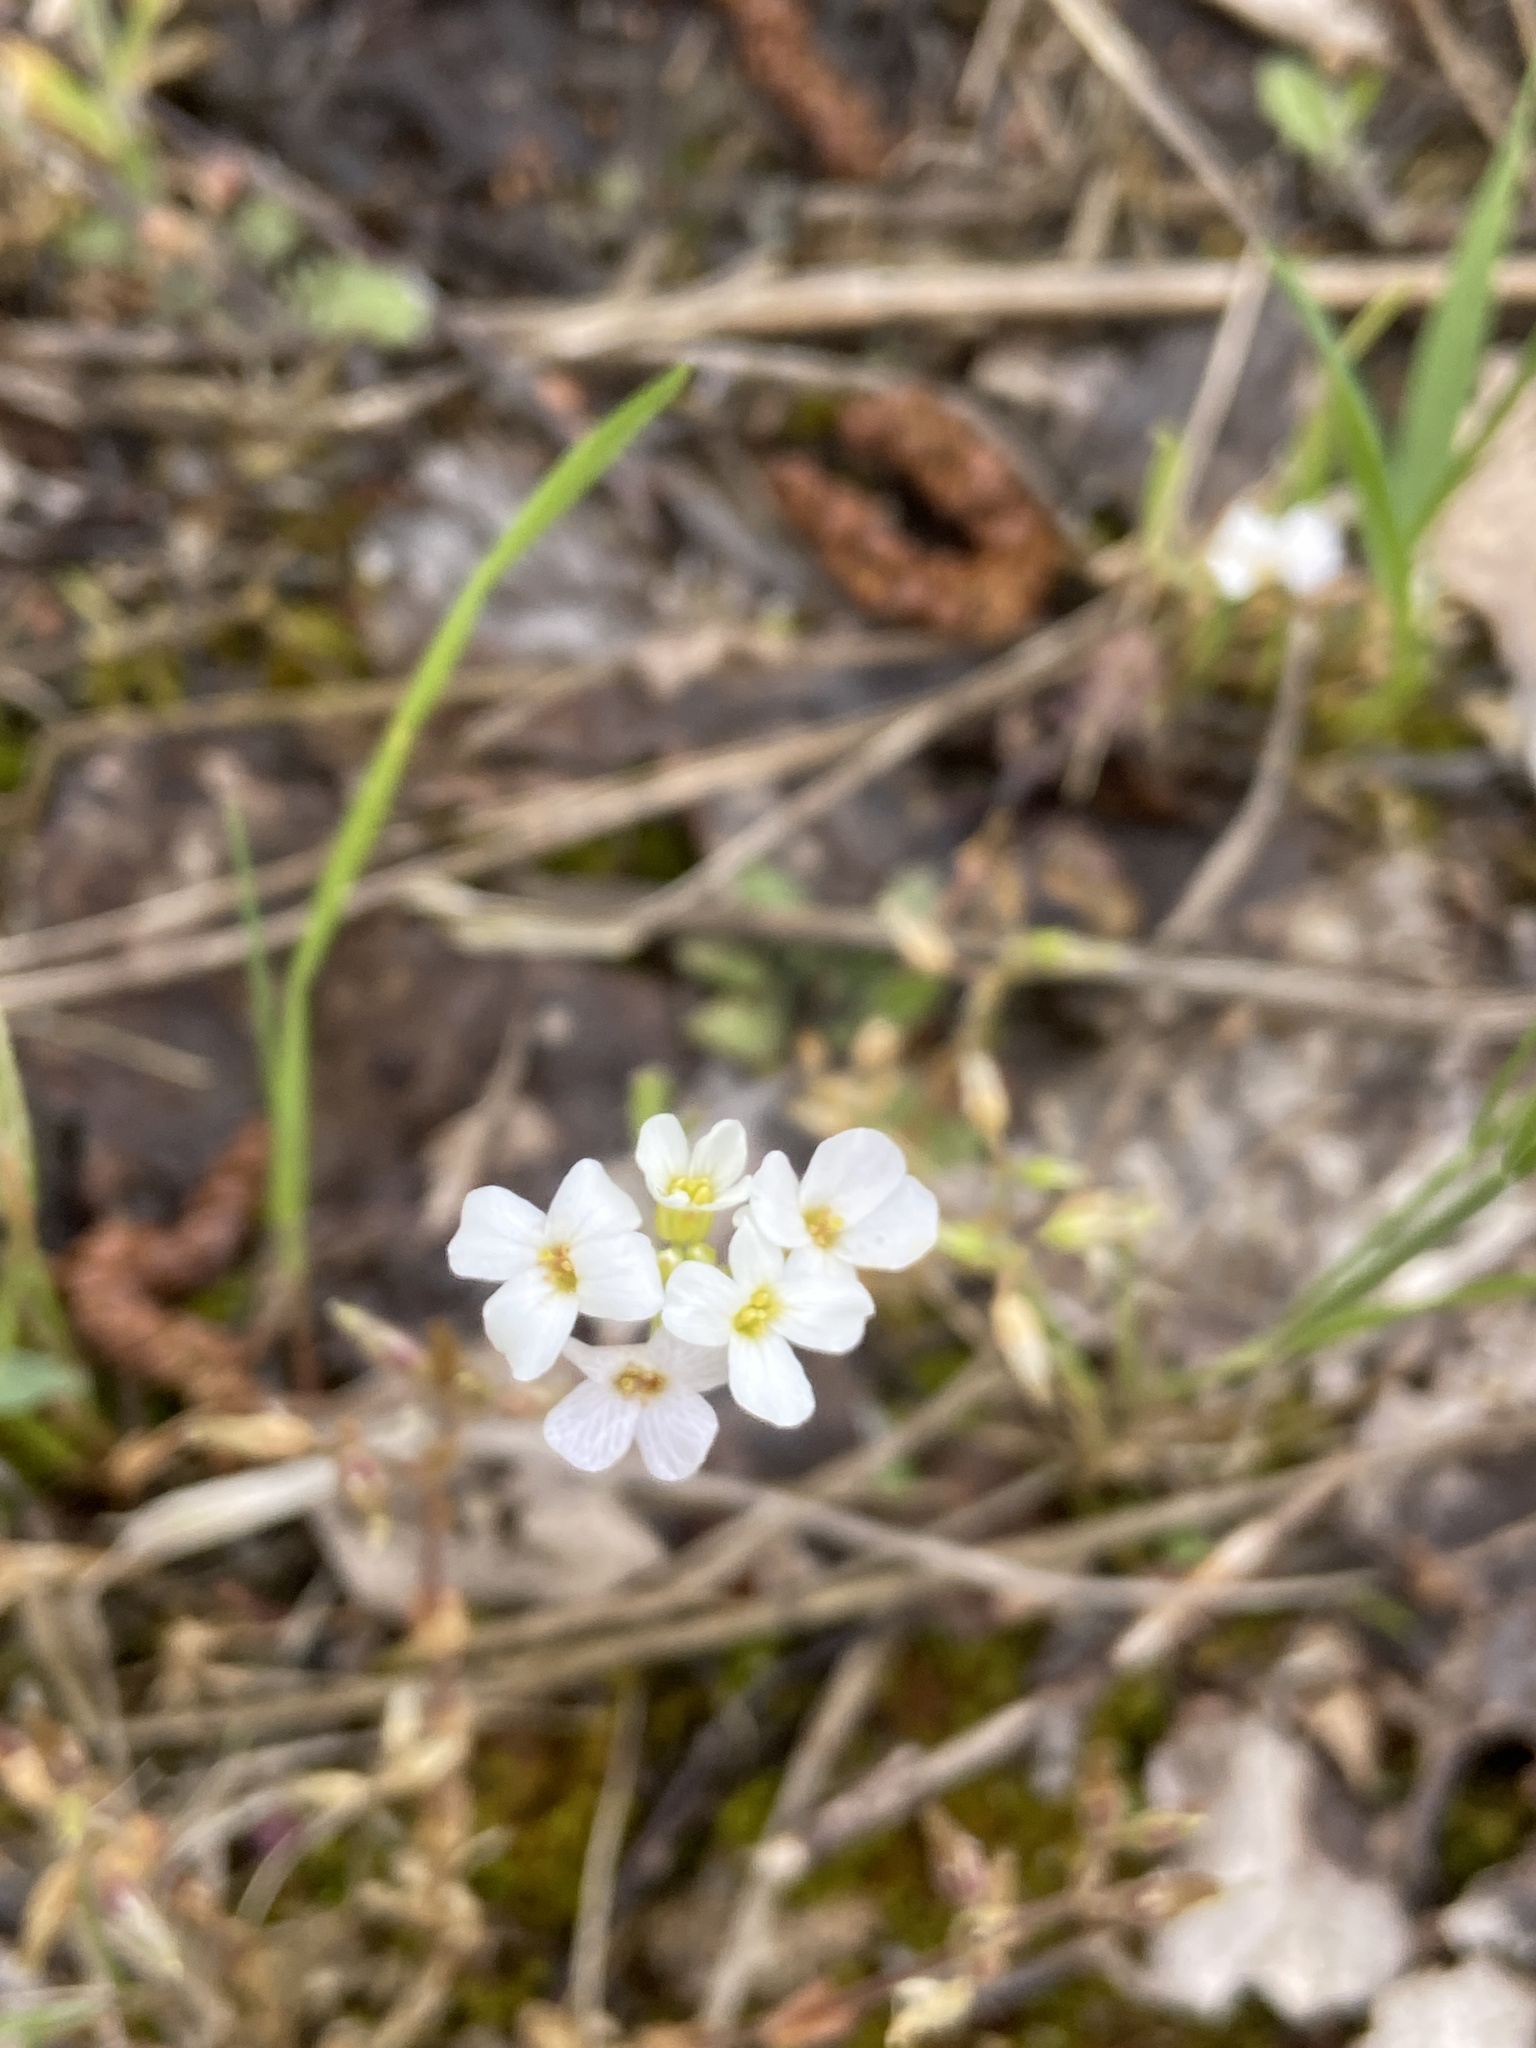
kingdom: Plantae
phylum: Tracheophyta
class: Magnoliopsida
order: Brassicales
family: Brassicaceae
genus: Arabidopsis
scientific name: Arabidopsis arenosa
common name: Sand rock-cress
